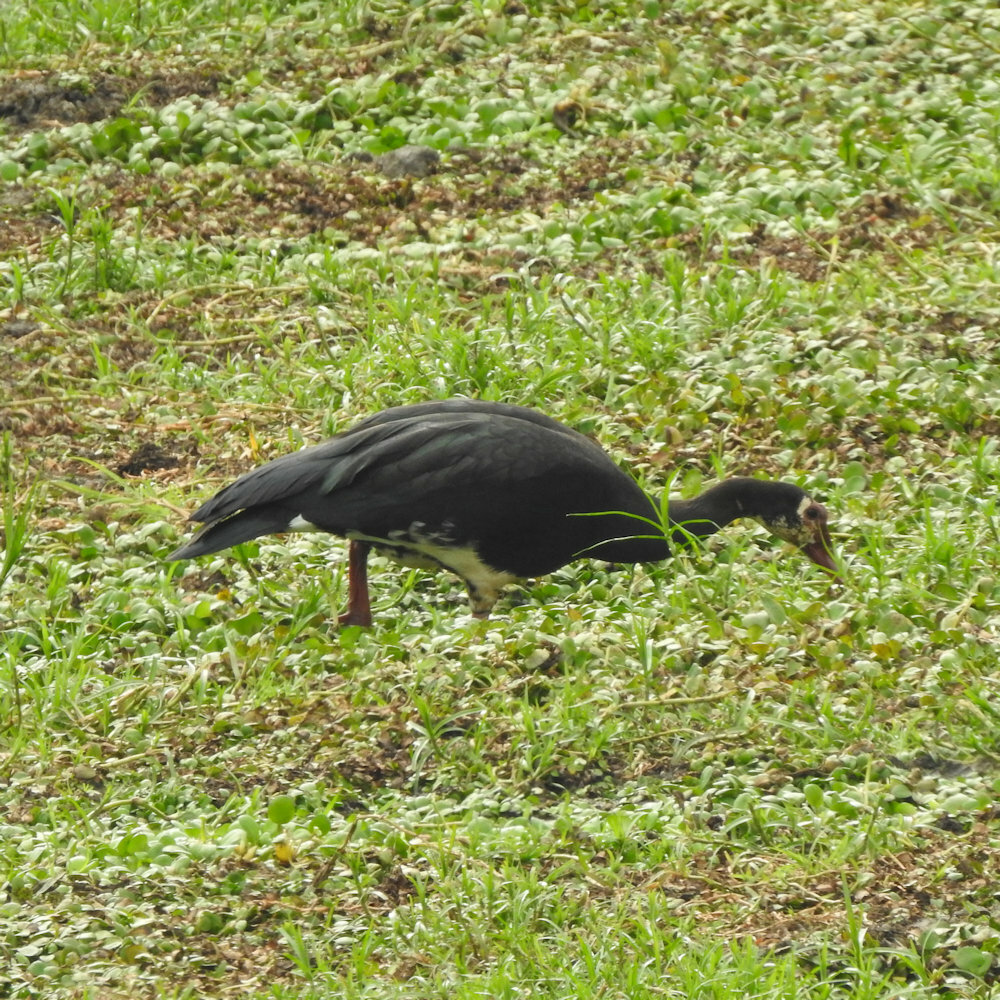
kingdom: Animalia
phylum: Chordata
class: Aves
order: Anseriformes
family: Anatidae
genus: Plectropterus
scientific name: Plectropterus gambensis
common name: Spur-winged goose
